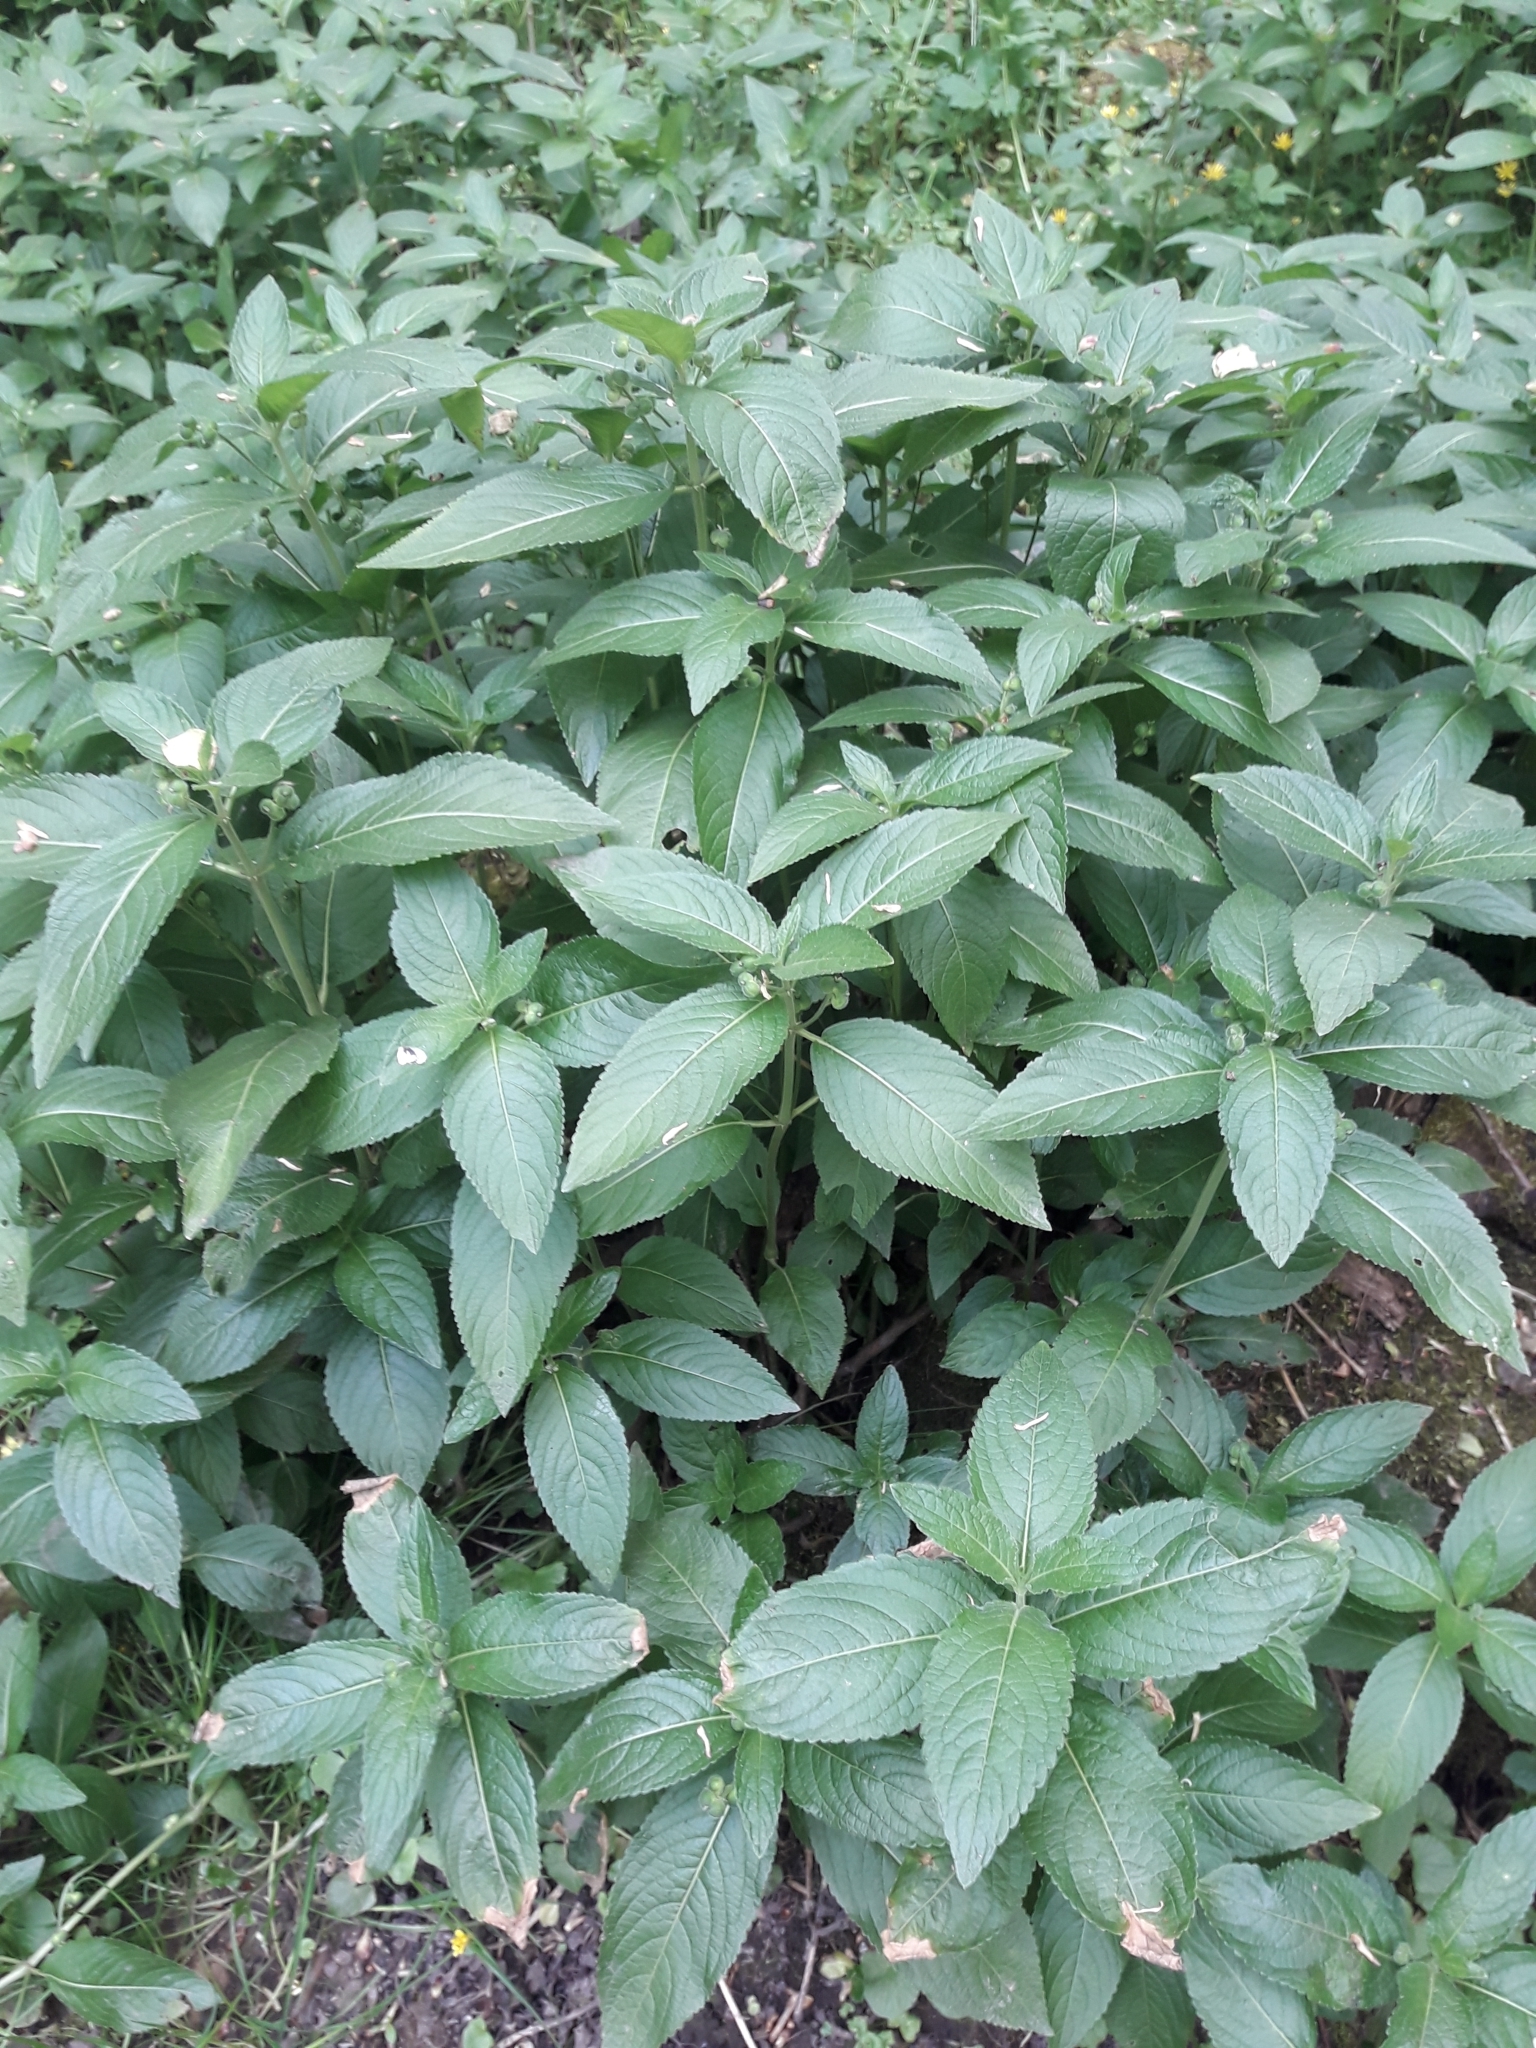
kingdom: Plantae
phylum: Tracheophyta
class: Magnoliopsida
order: Malpighiales
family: Euphorbiaceae
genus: Mercurialis
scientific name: Mercurialis perennis
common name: Dog mercury
